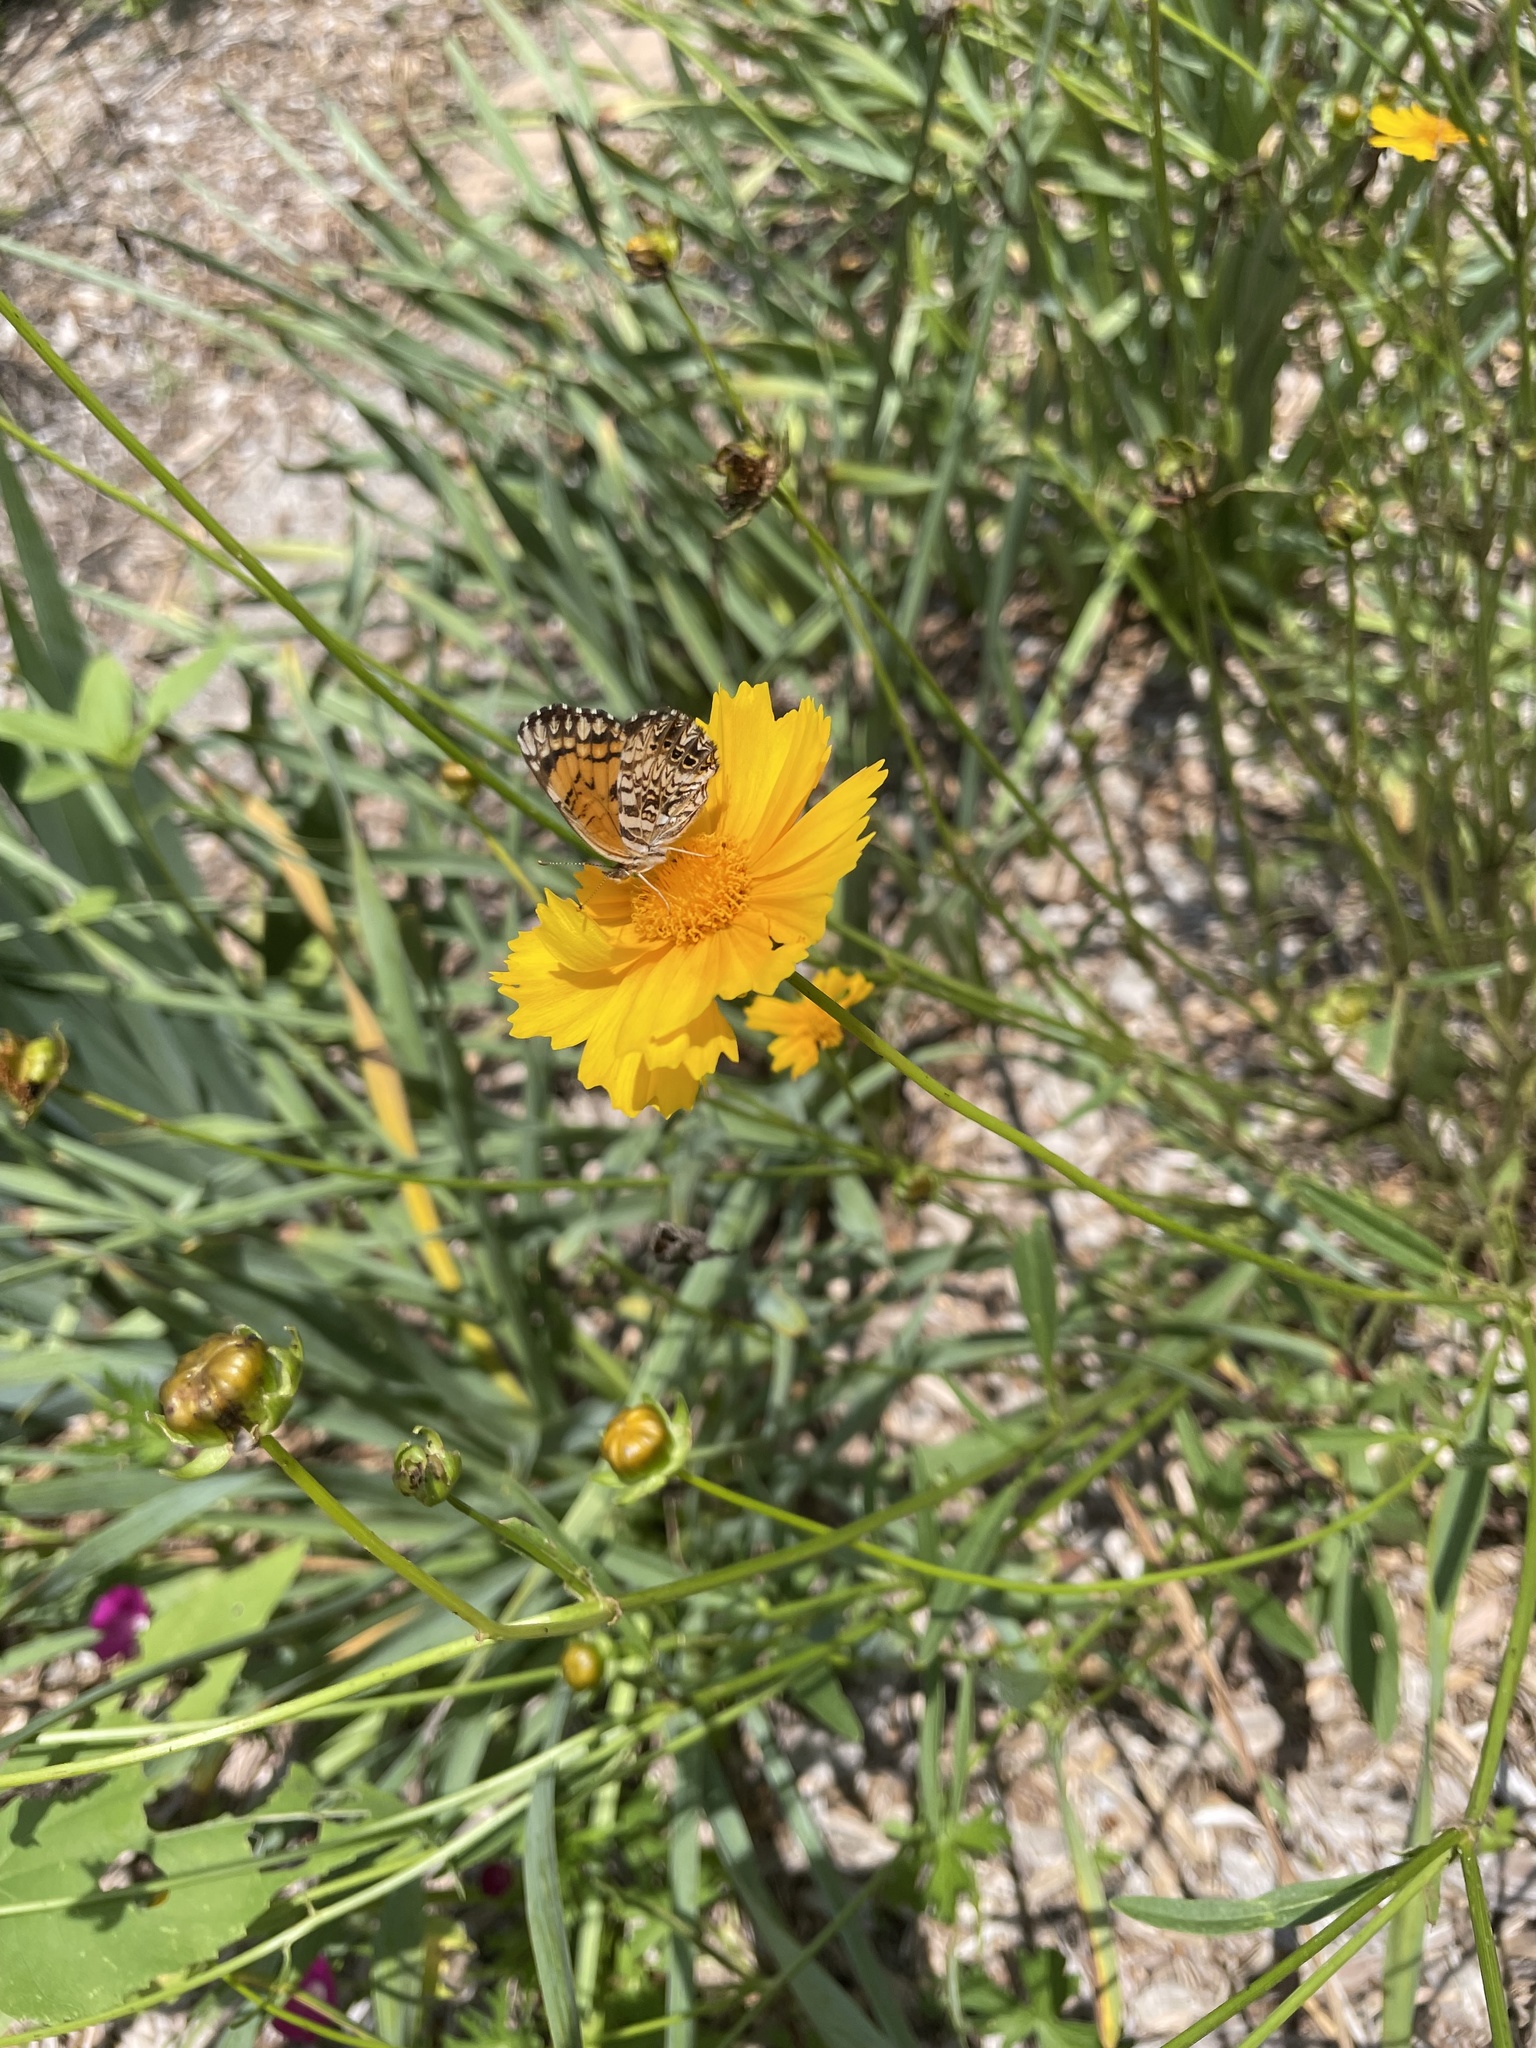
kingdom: Animalia
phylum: Arthropoda
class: Insecta
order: Lepidoptera
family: Nymphalidae
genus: Chlosyne
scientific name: Chlosyne gorgone
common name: Gorgone checkerspot
